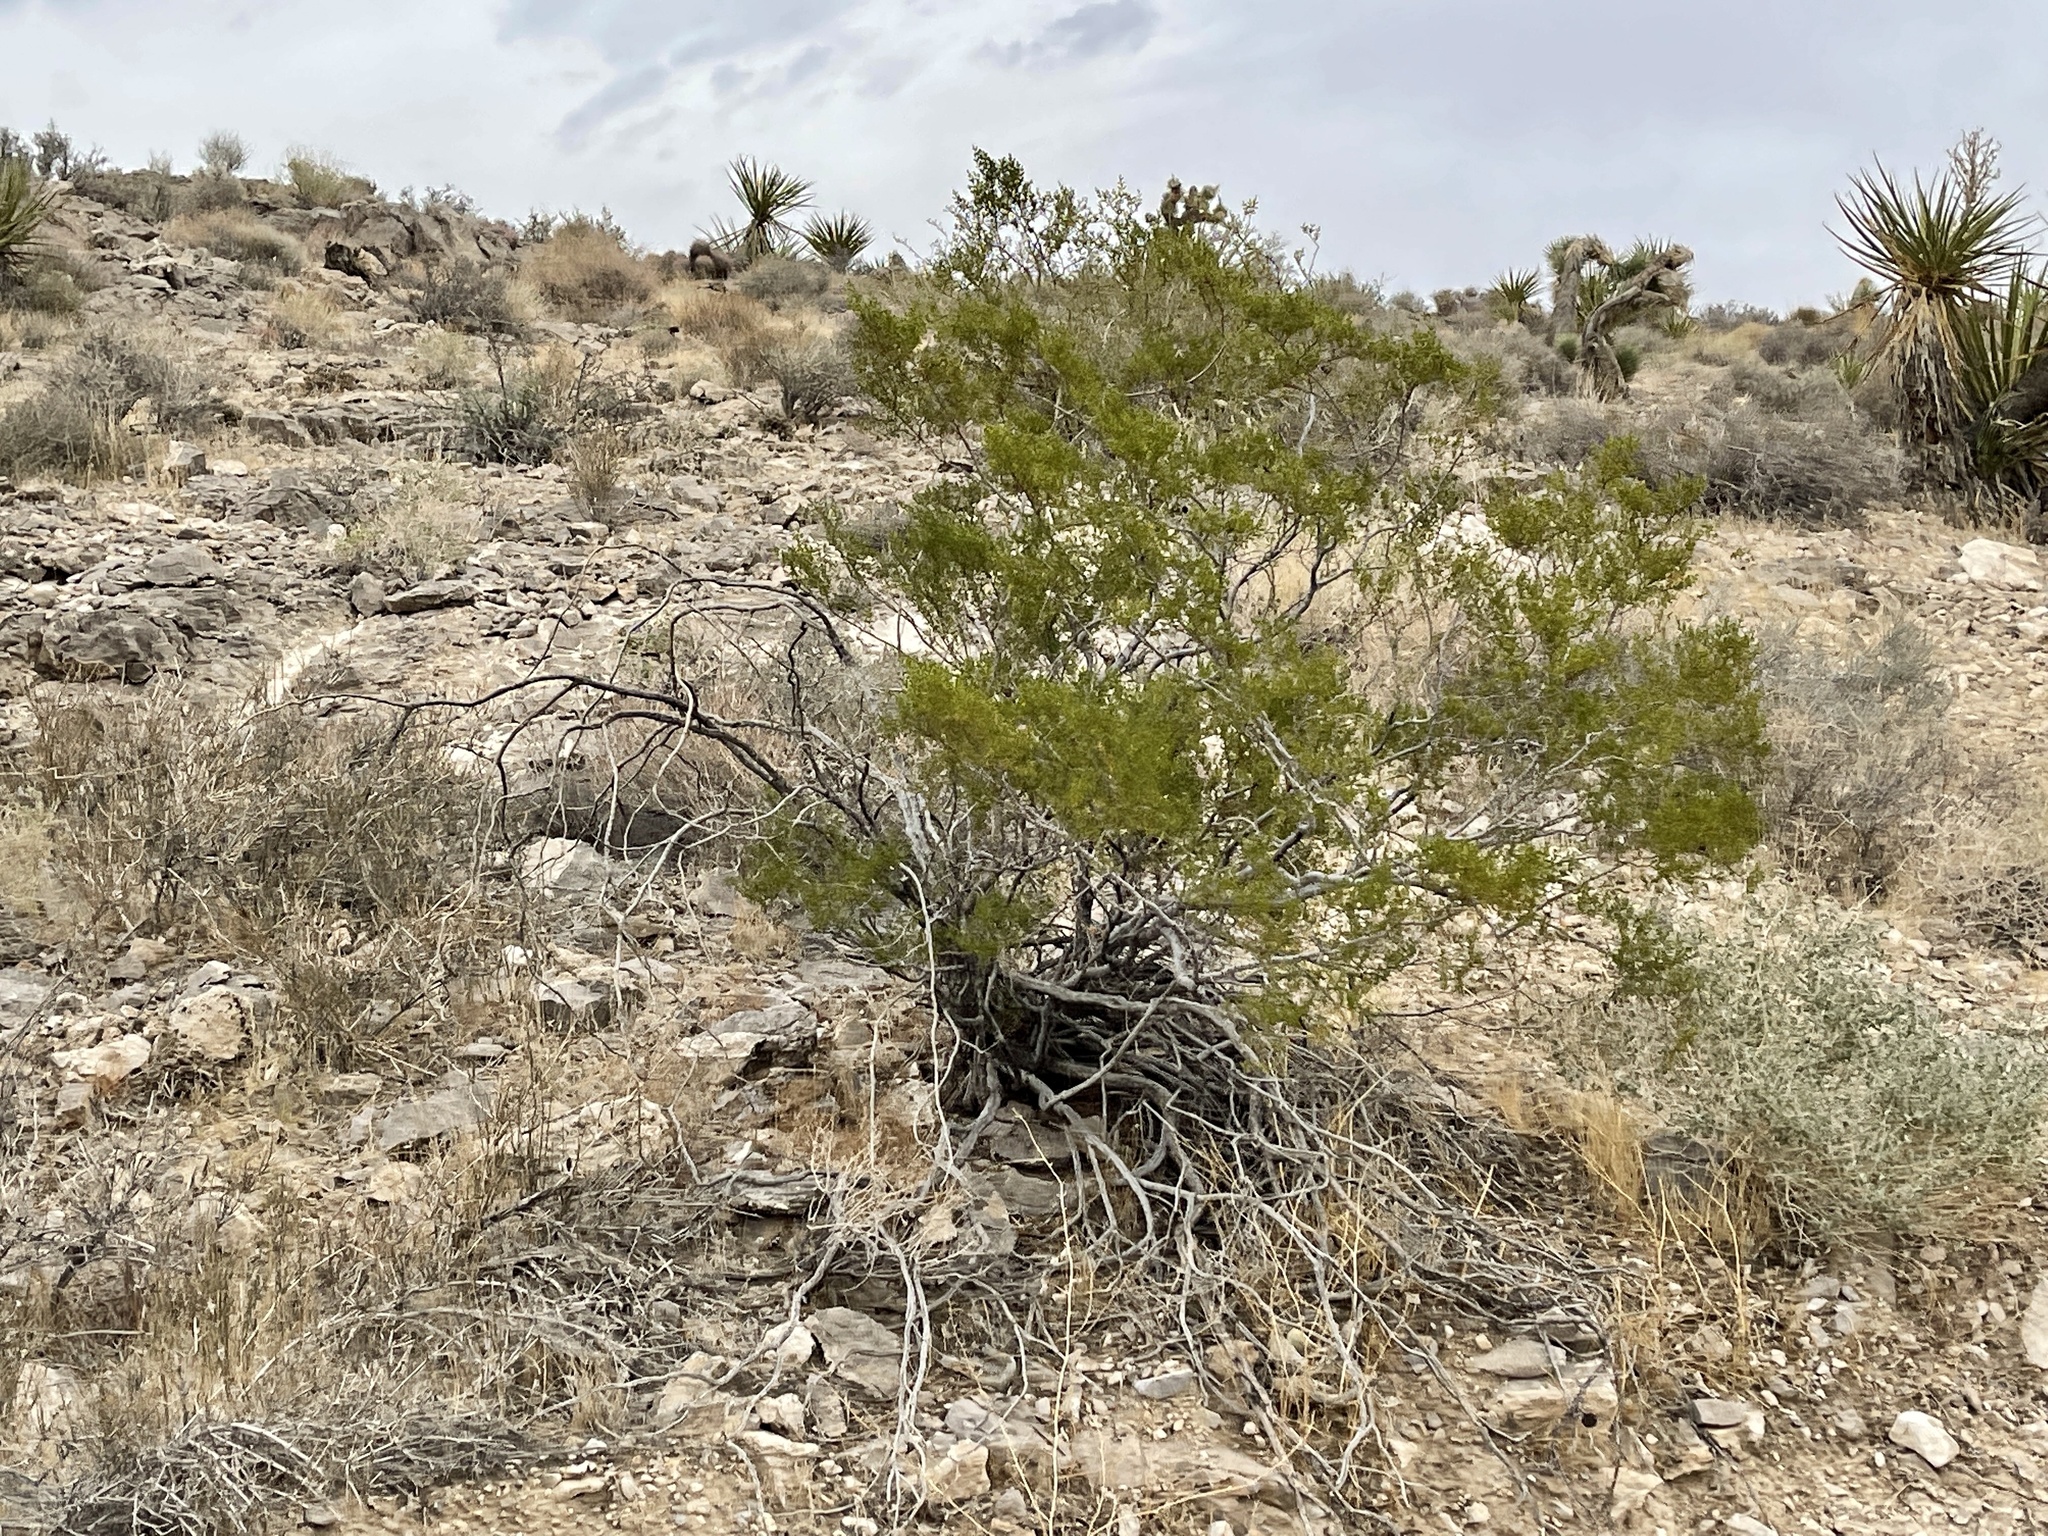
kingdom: Plantae
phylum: Tracheophyta
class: Magnoliopsida
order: Zygophyllales
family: Zygophyllaceae
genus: Larrea
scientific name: Larrea tridentata
